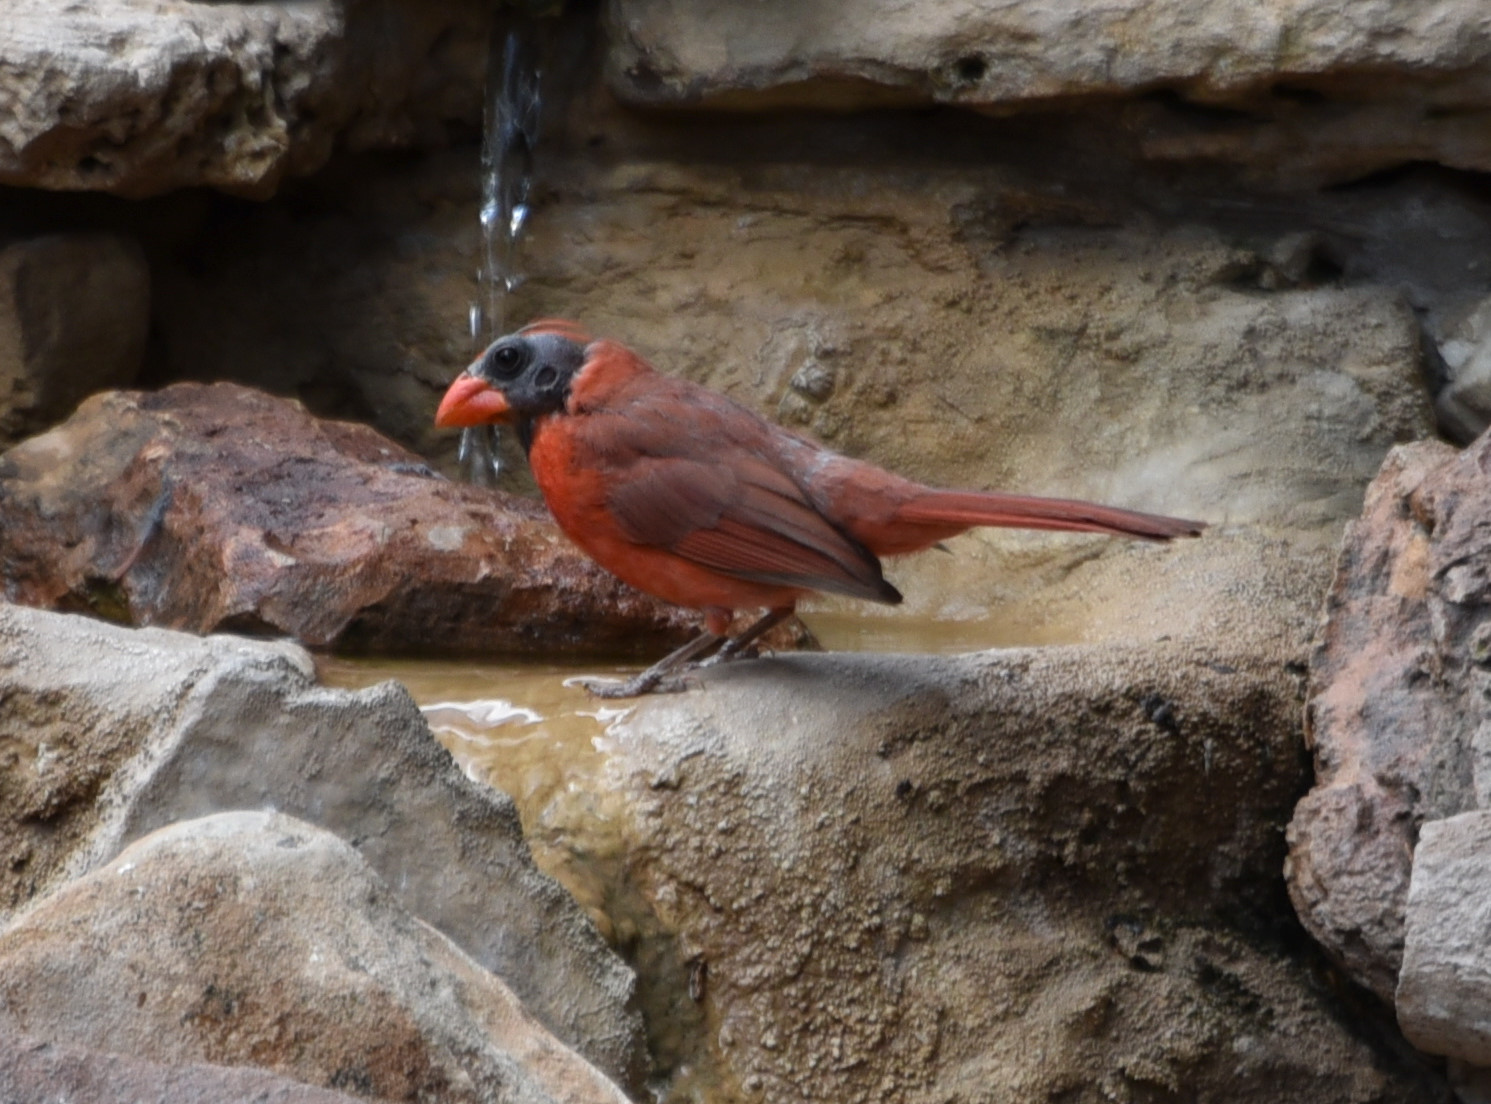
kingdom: Animalia
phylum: Chordata
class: Aves
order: Passeriformes
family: Cardinalidae
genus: Cardinalis
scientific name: Cardinalis cardinalis
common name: Northern cardinal
